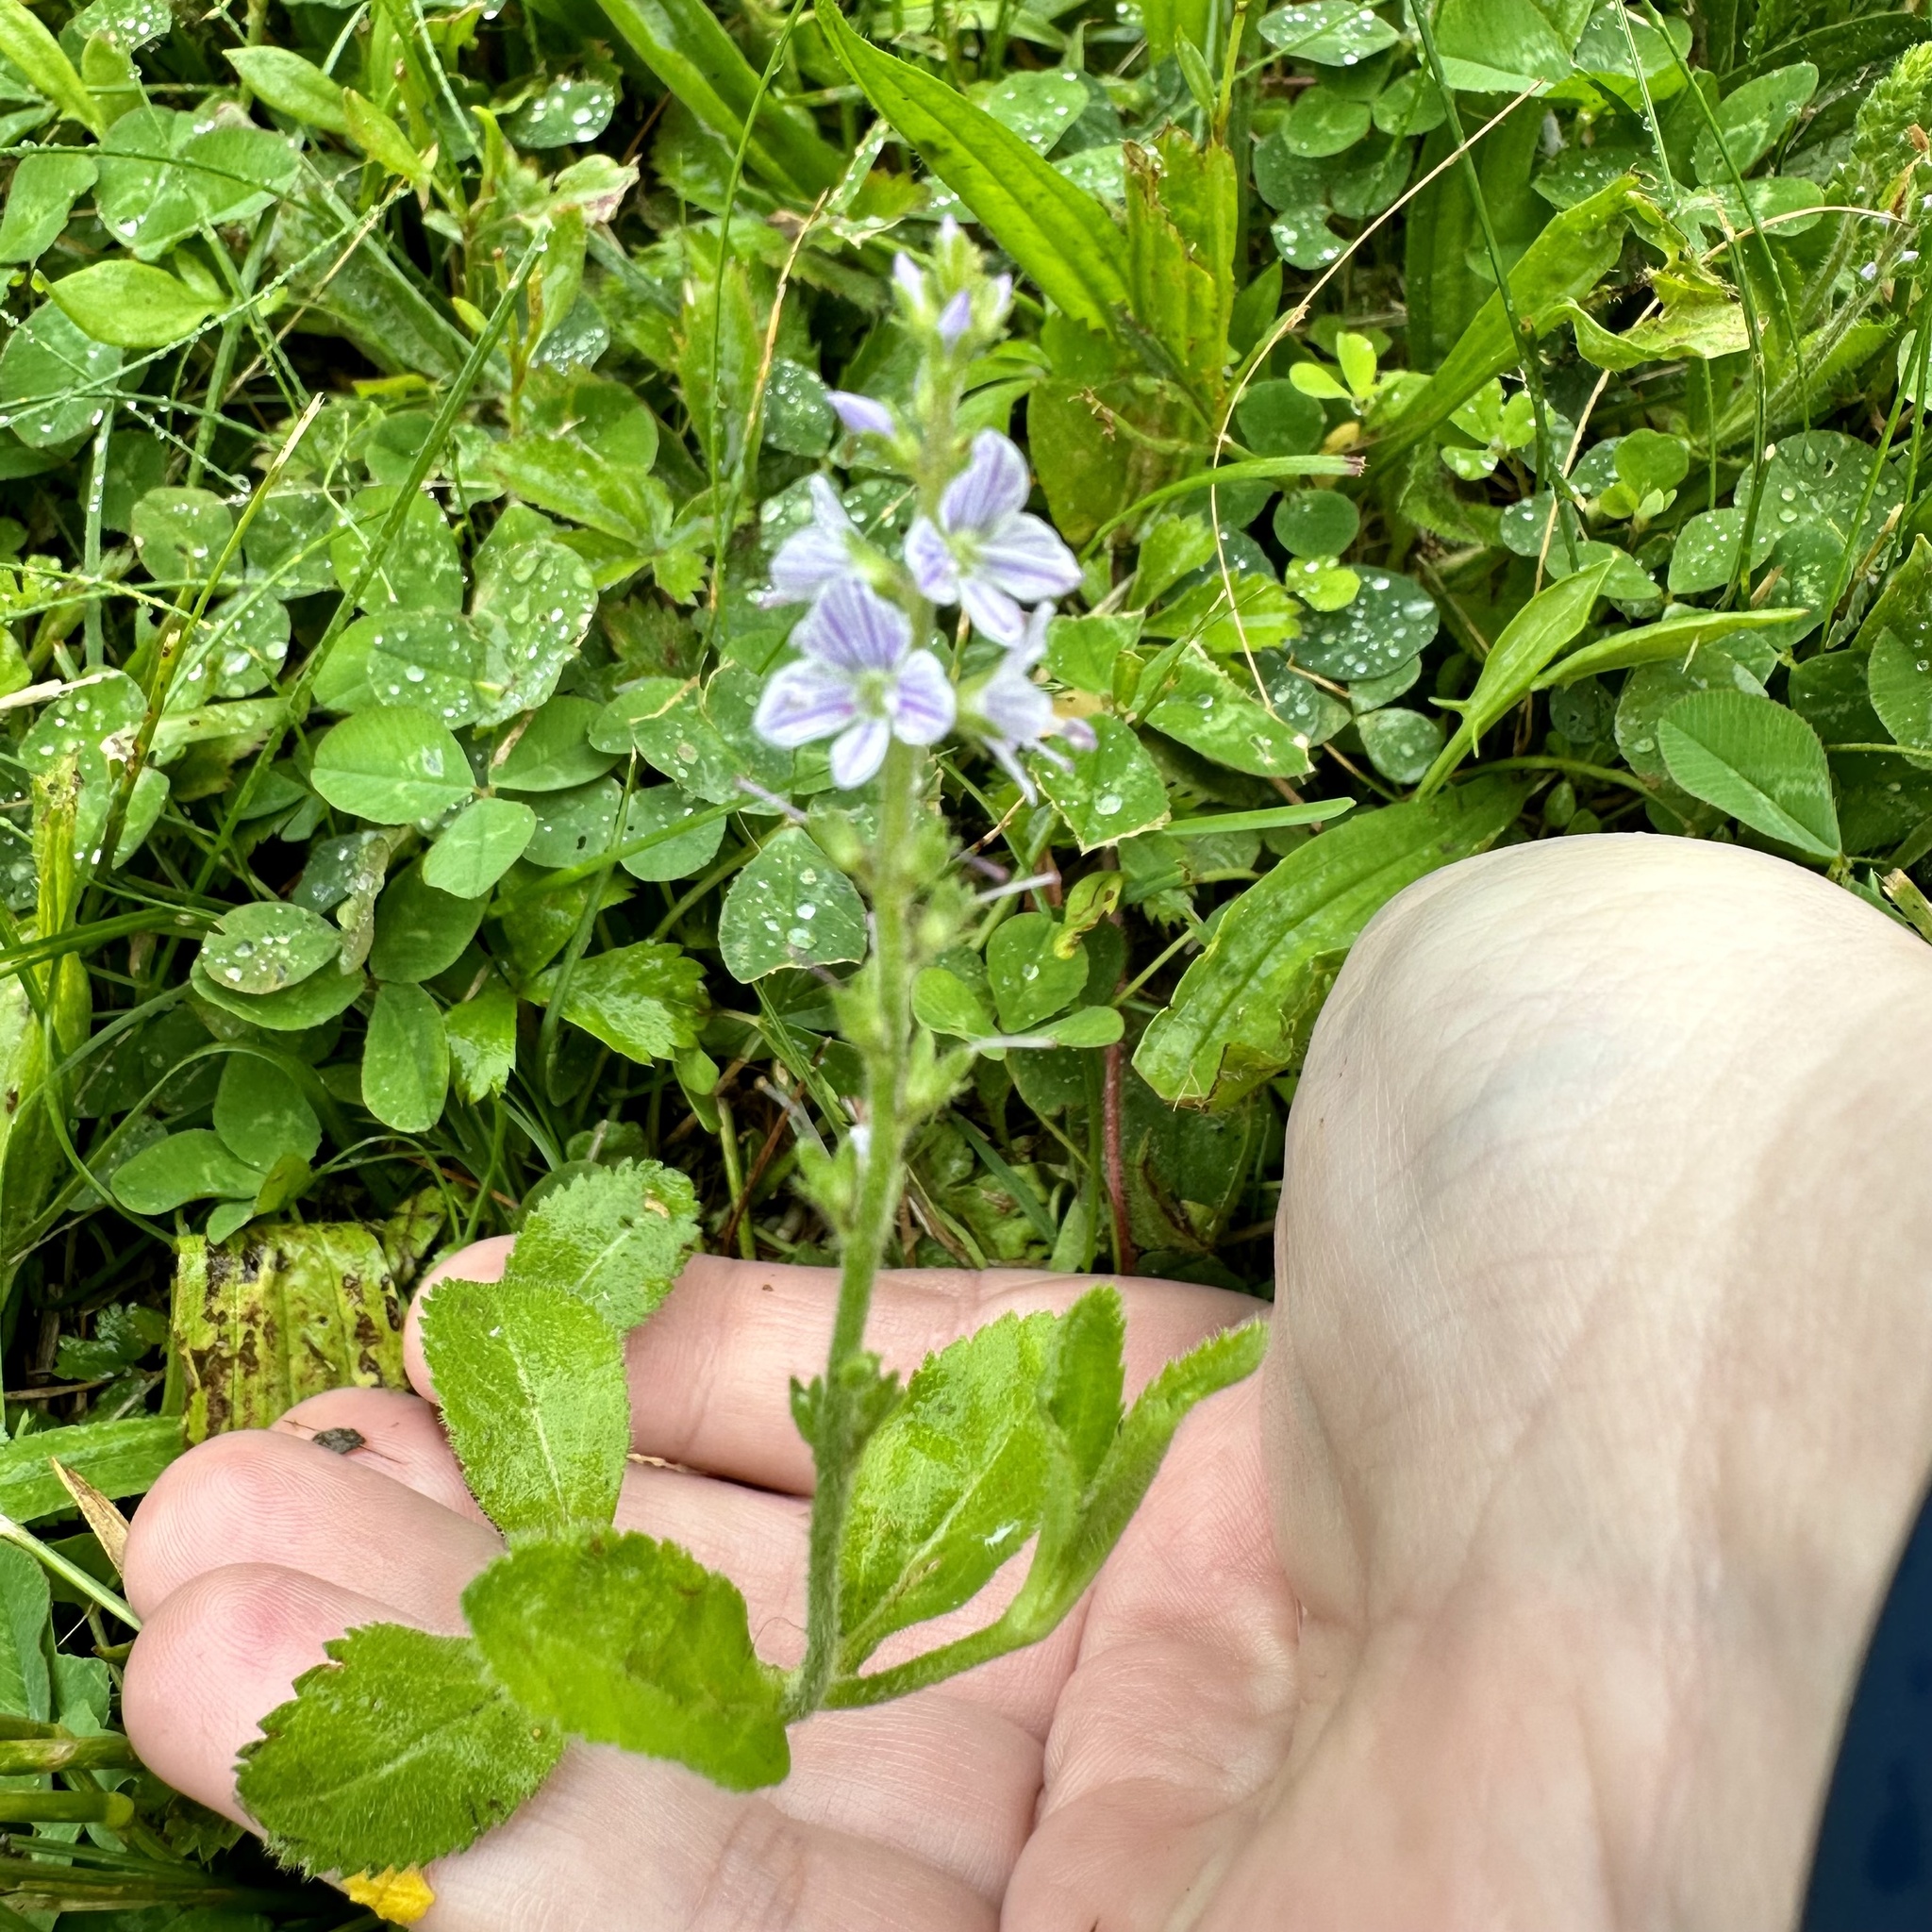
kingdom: Plantae
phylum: Tracheophyta
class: Magnoliopsida
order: Lamiales
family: Plantaginaceae
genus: Veronica
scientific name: Veronica officinalis
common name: Common speedwell
